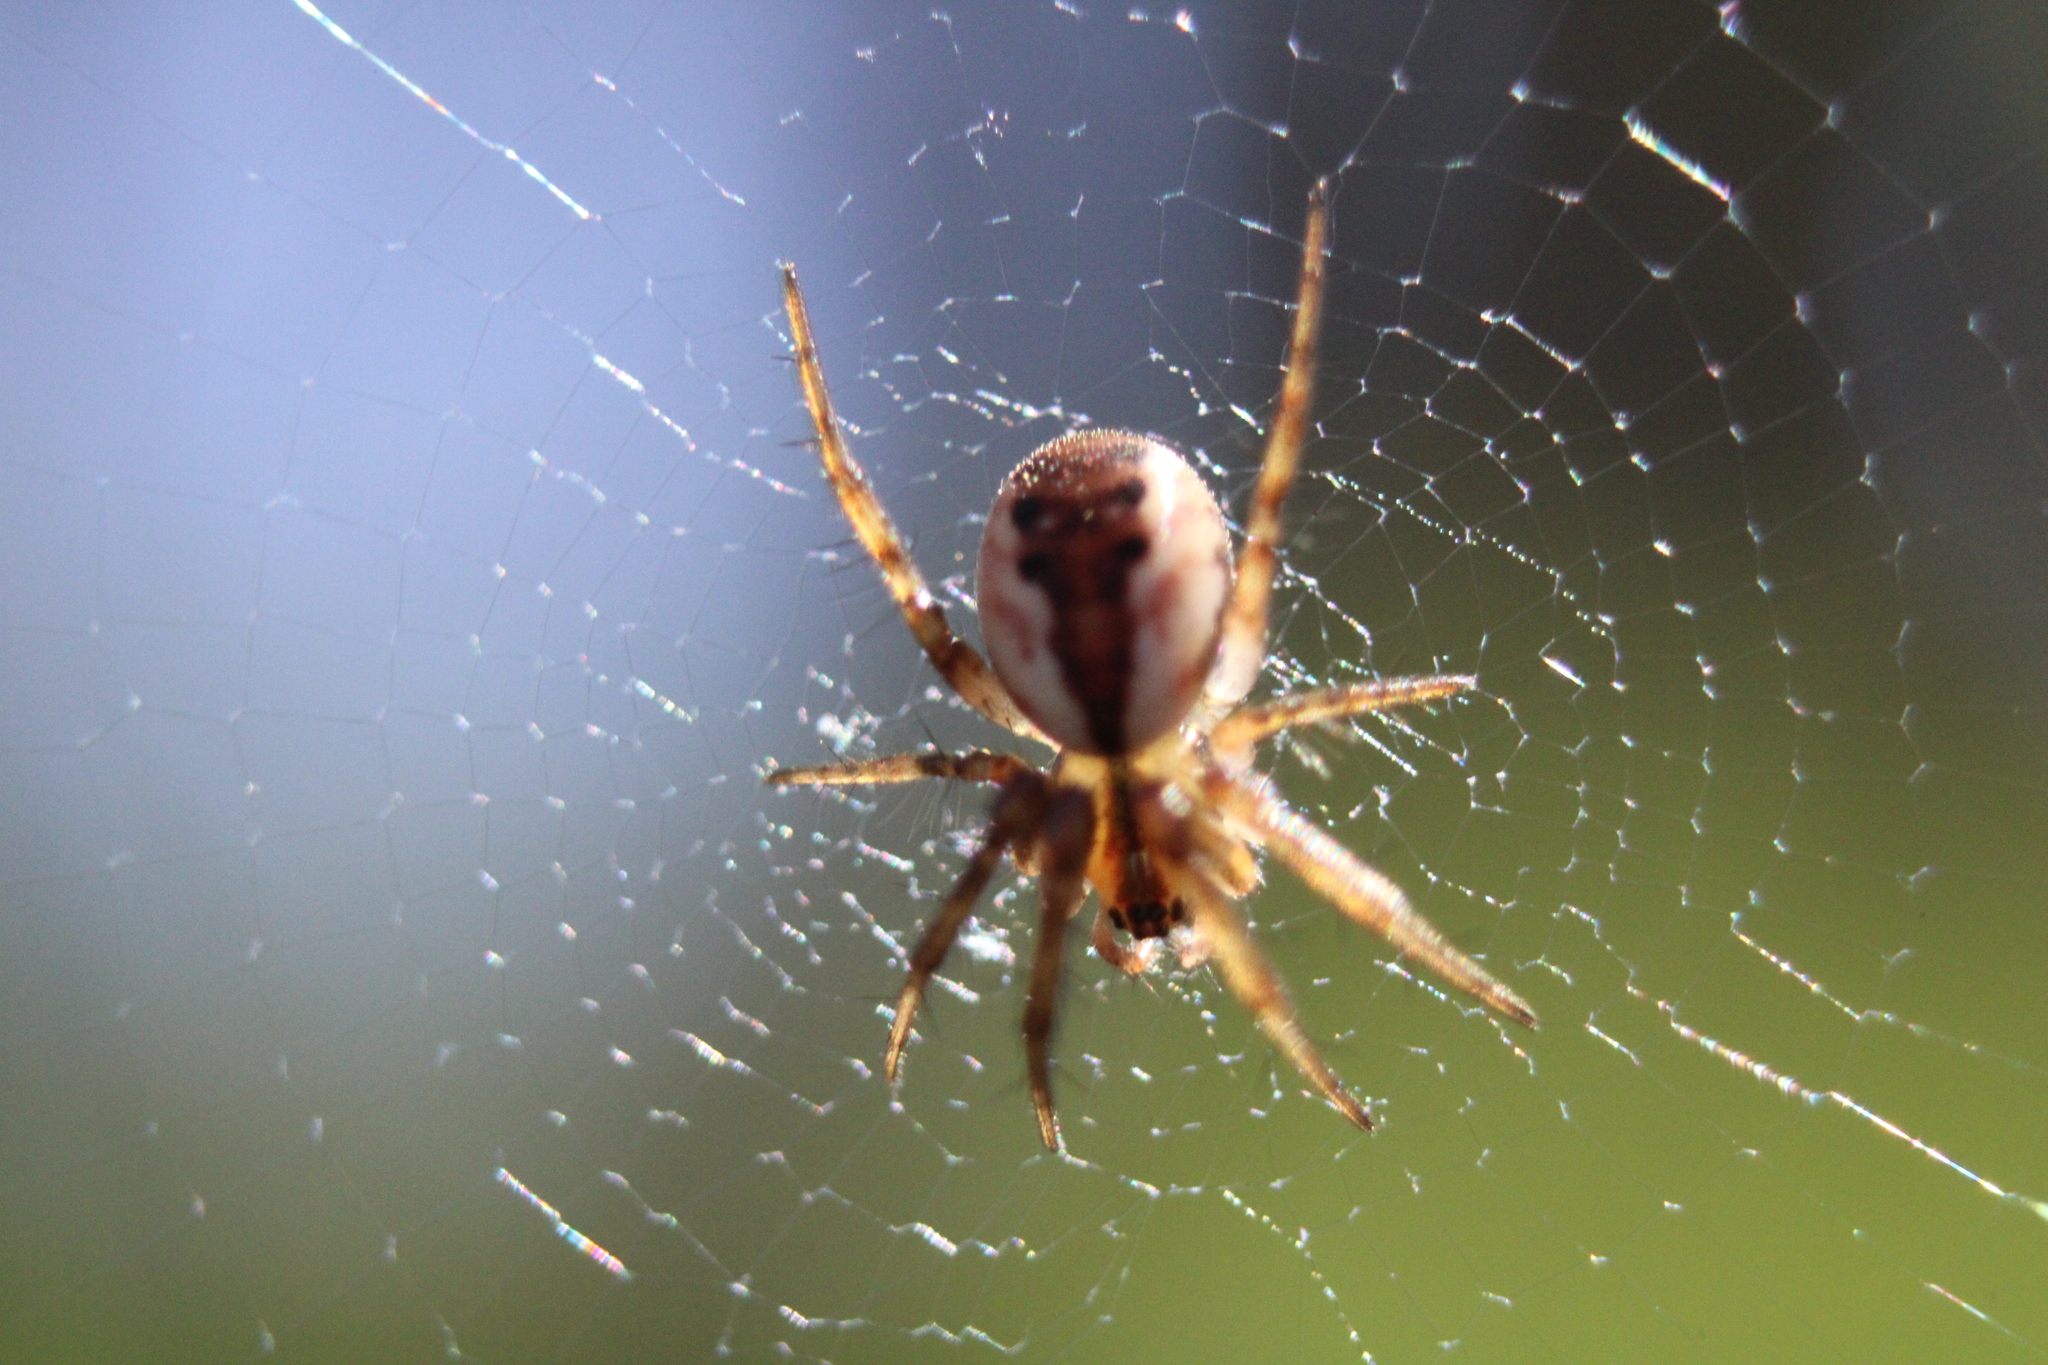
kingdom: Animalia
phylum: Arthropoda
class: Arachnida
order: Araneae
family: Araneidae
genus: Mangora
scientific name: Mangora placida
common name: Tuft-legged orbweaver
